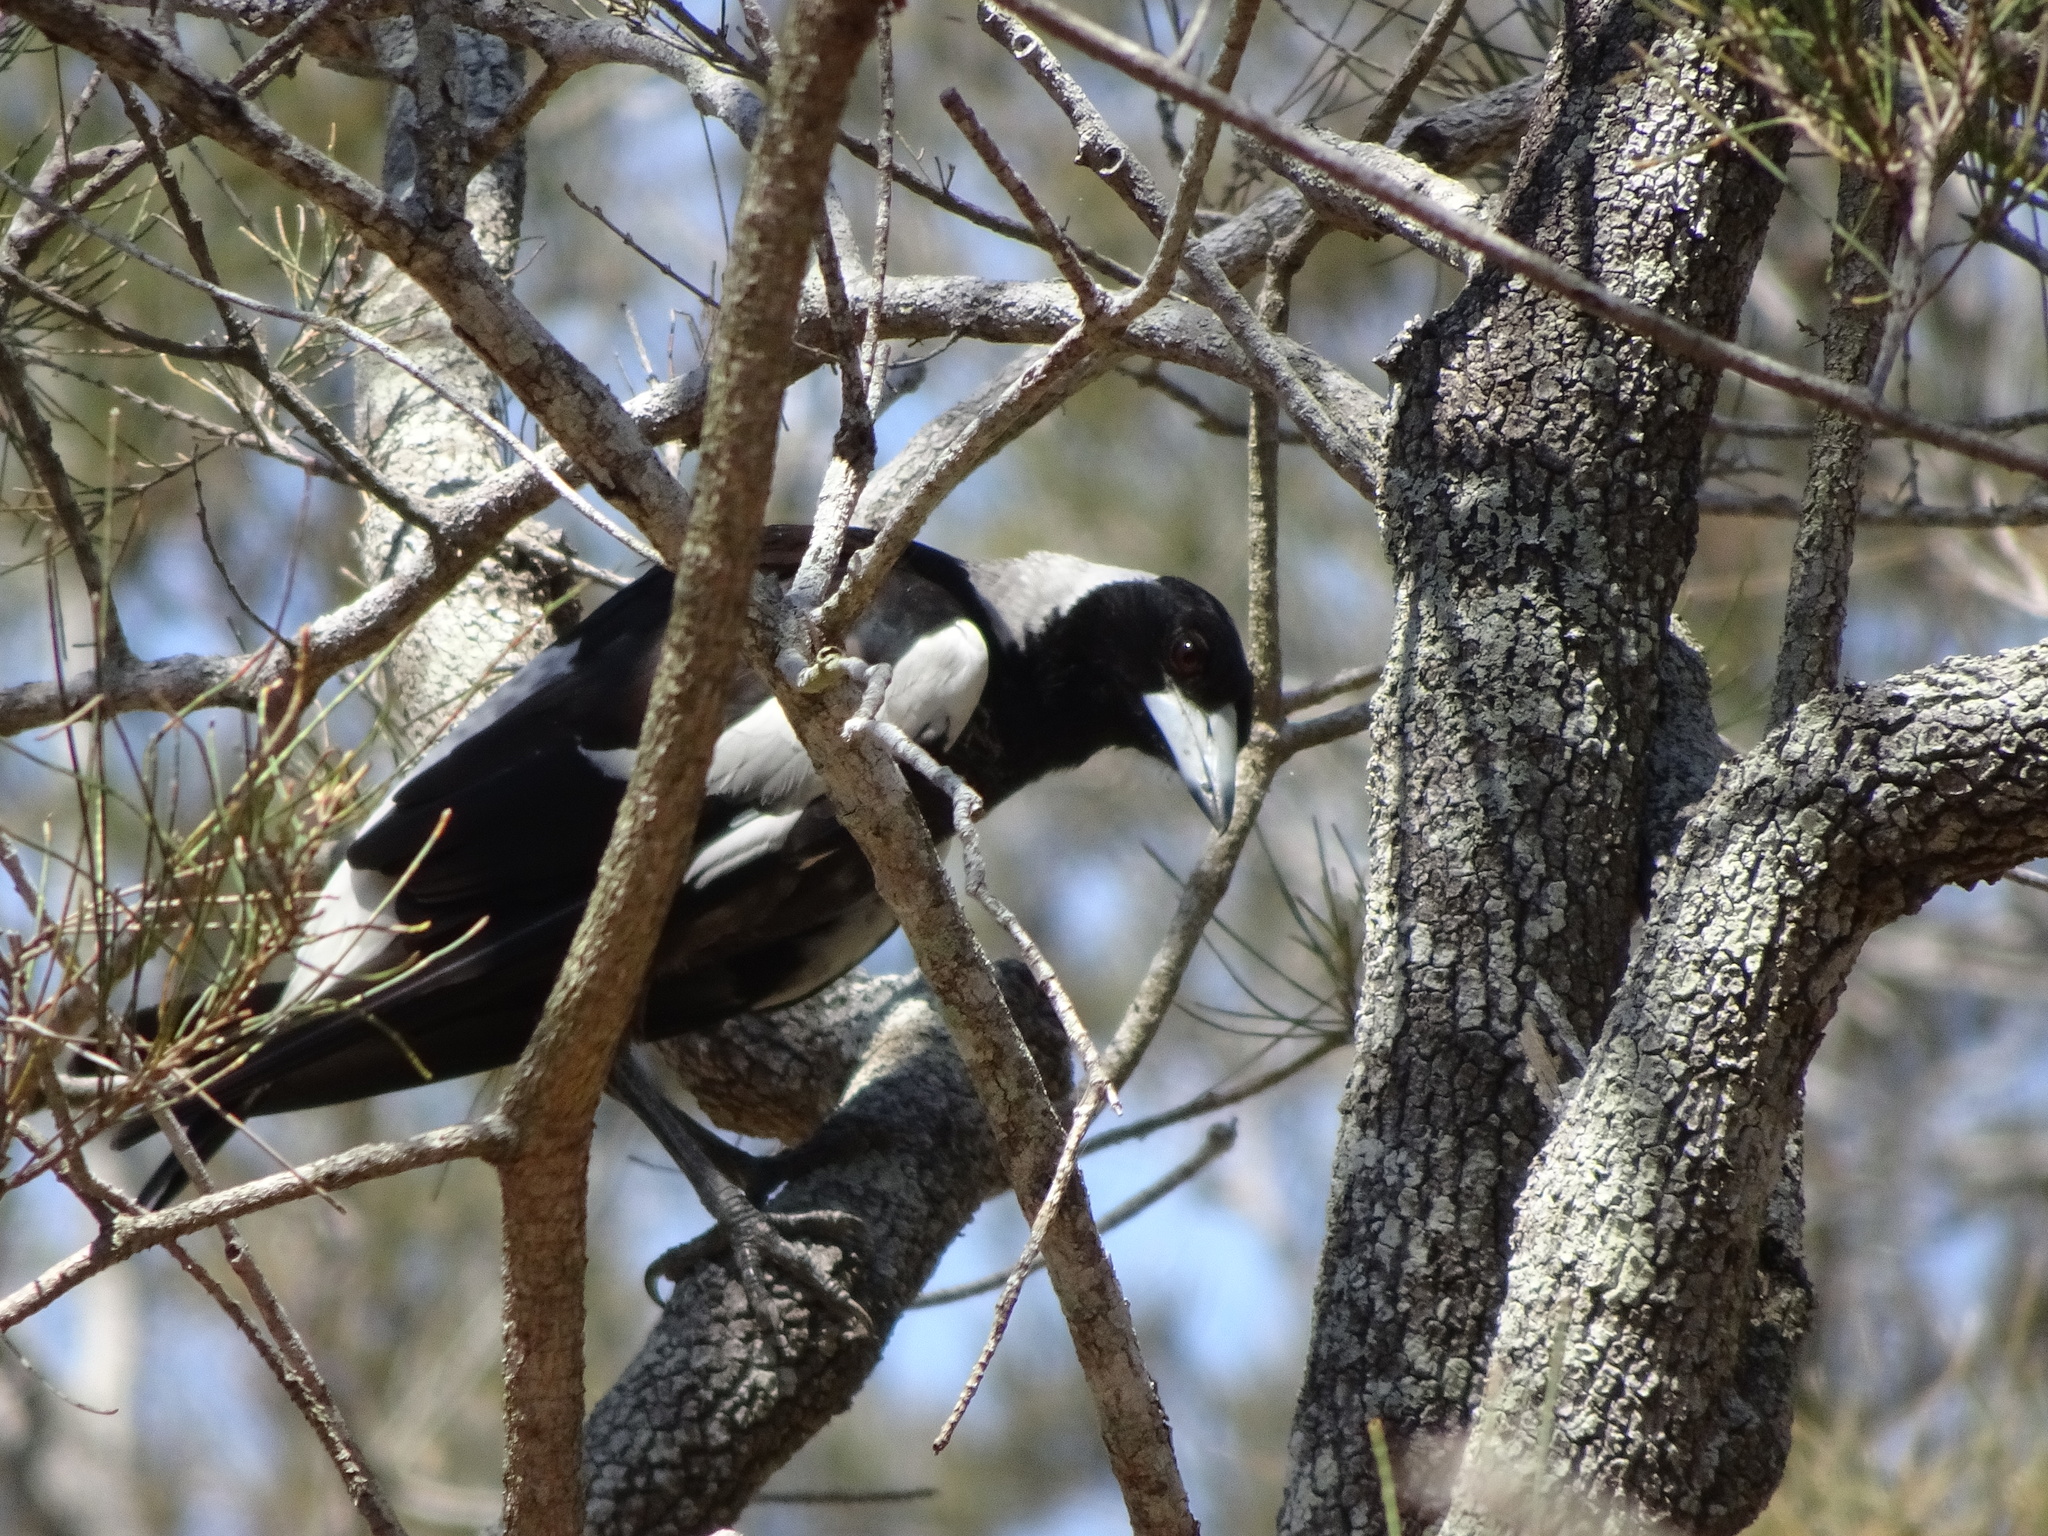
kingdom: Animalia
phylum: Chordata
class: Aves
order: Passeriformes
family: Cracticidae
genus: Gymnorhina
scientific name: Gymnorhina tibicen
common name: Australian magpie
